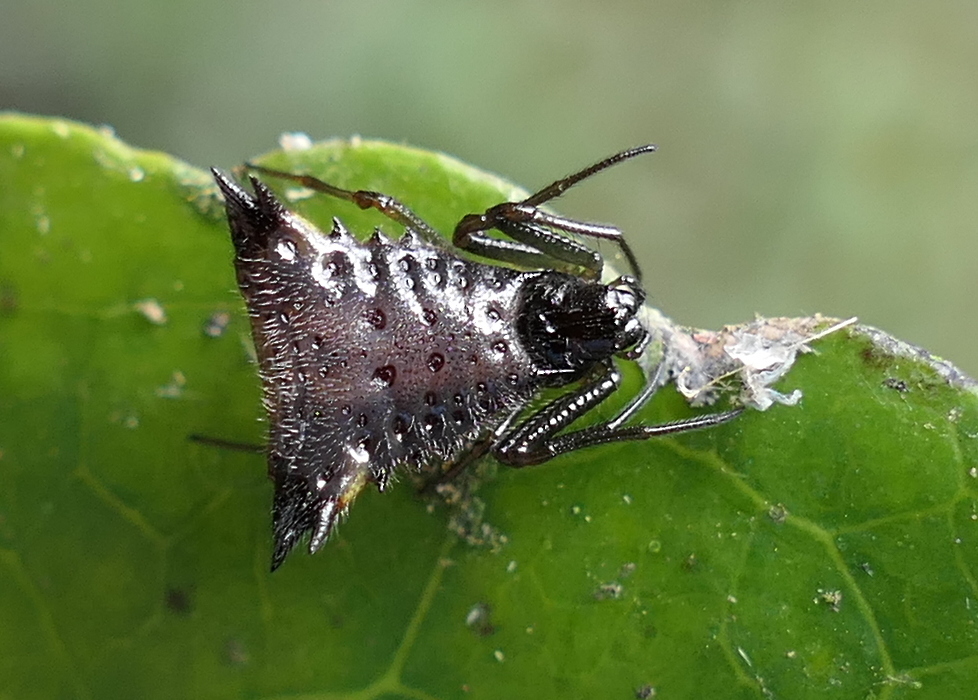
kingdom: Animalia
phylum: Arthropoda
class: Arachnida
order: Araneae
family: Araneidae
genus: Micrathena
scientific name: Micrathena triangularis
